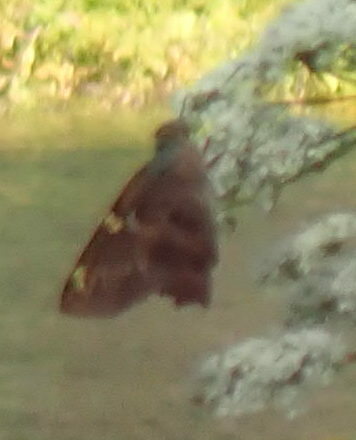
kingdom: Animalia
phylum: Arthropoda
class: Insecta
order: Lepidoptera
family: Hesperiidae
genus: Urbanus
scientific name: Urbanus proteus
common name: Long-tailed skipper
